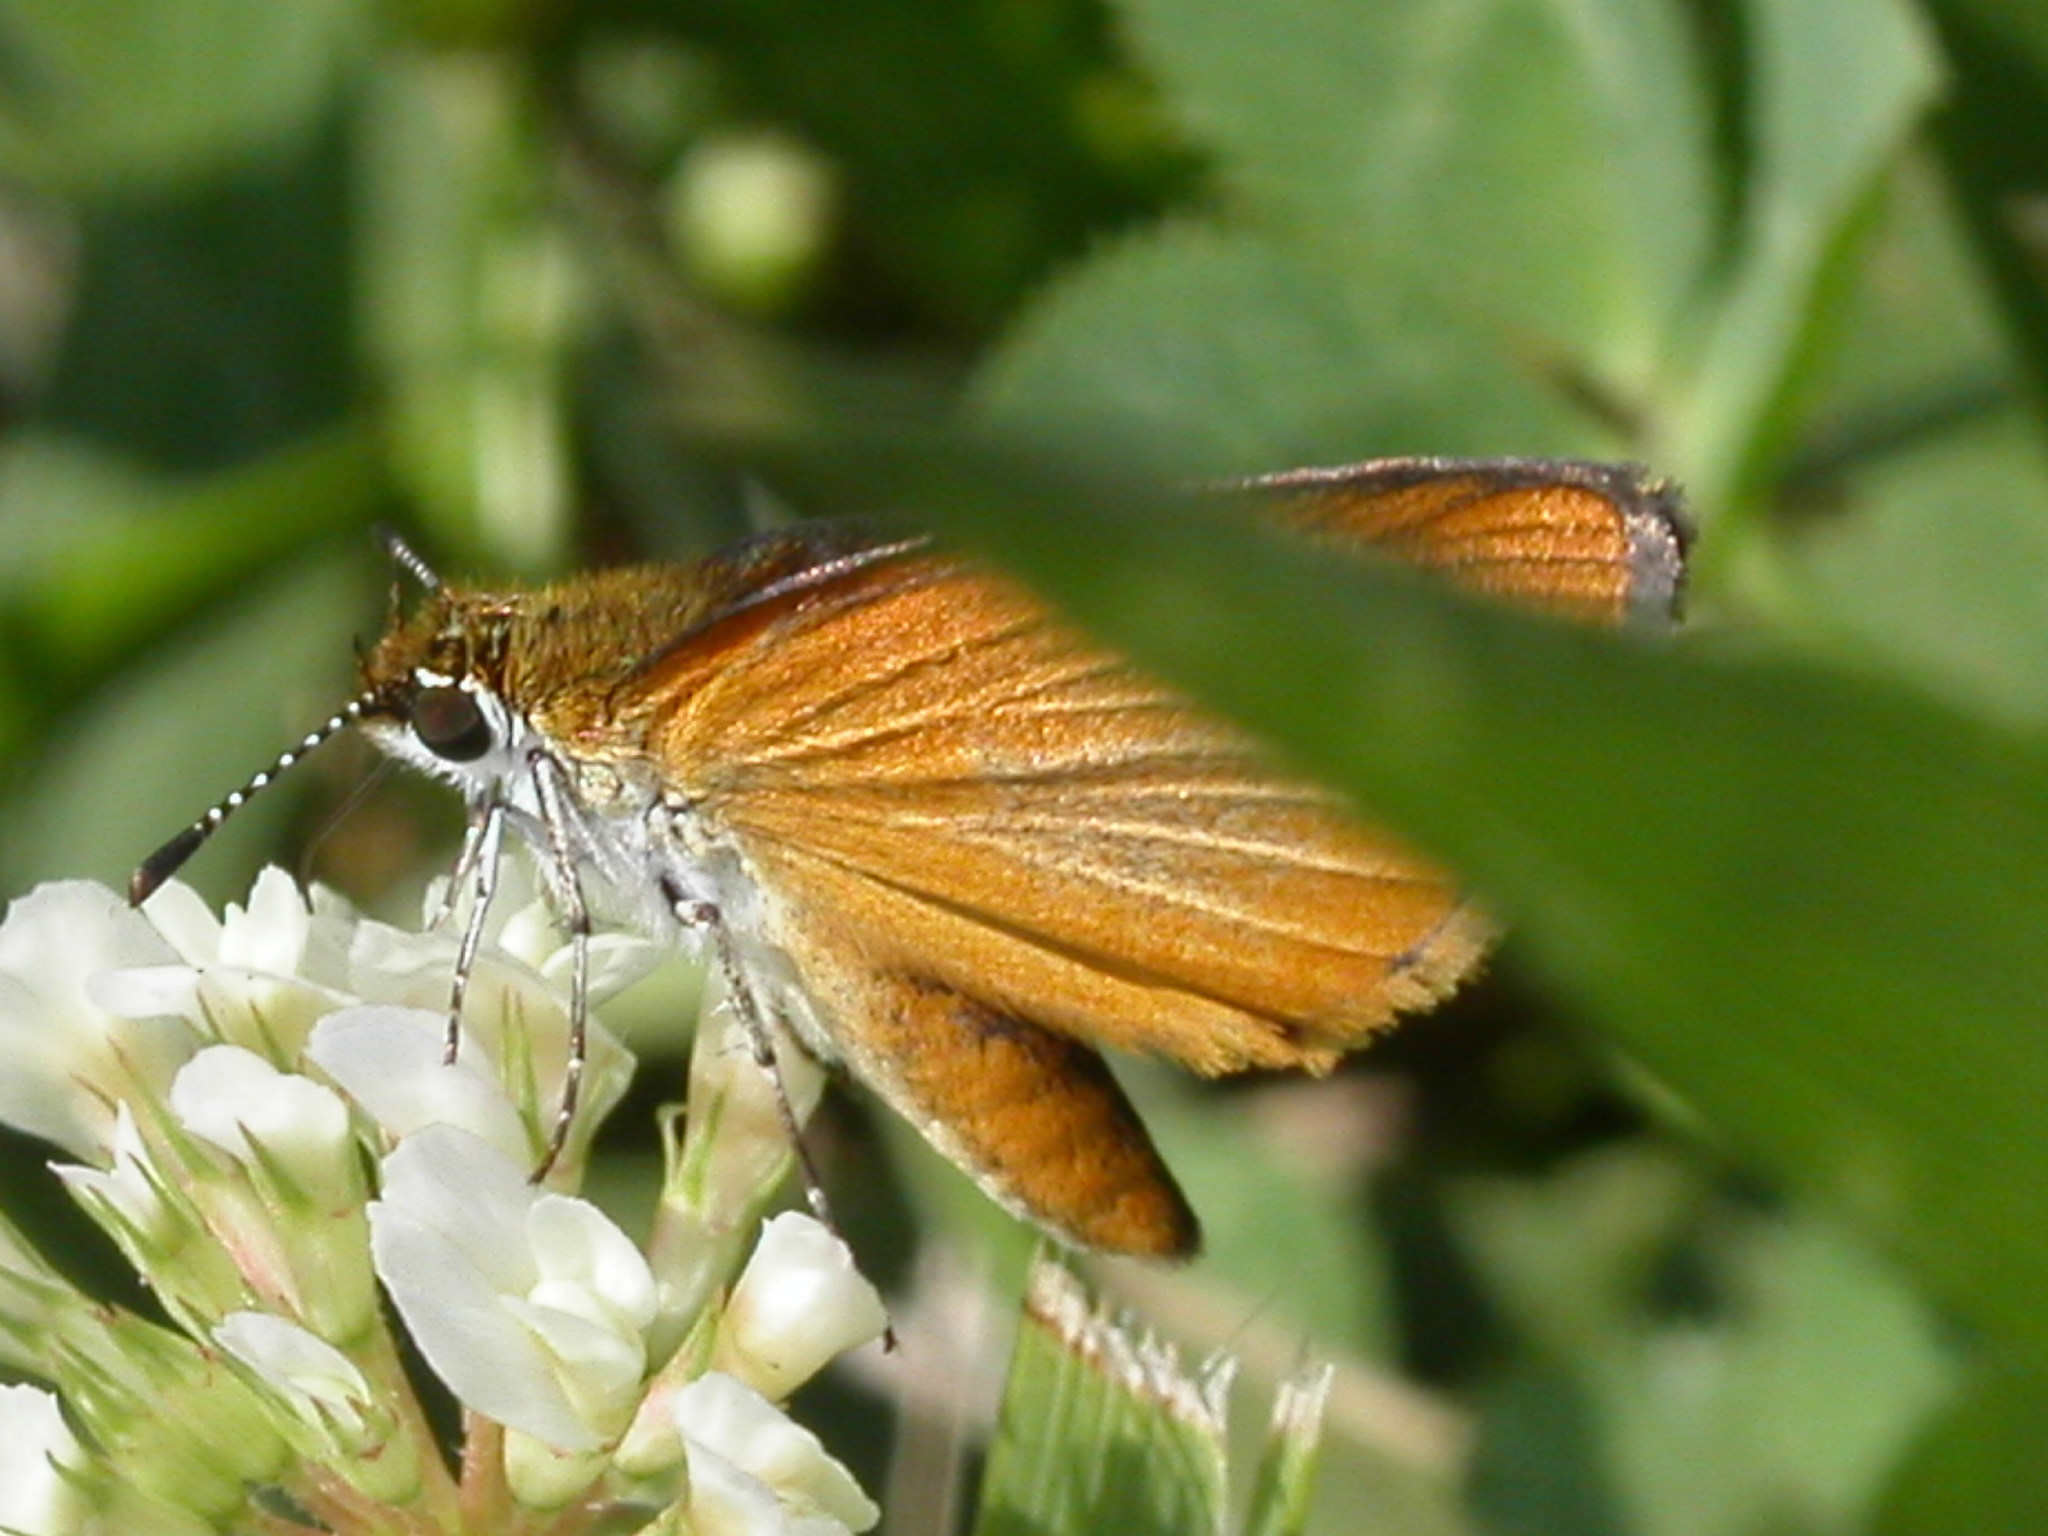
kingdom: Animalia
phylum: Arthropoda
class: Insecta
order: Lepidoptera
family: Hesperiidae
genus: Ancyloxypha
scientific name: Ancyloxypha numitor
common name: Least skipper
